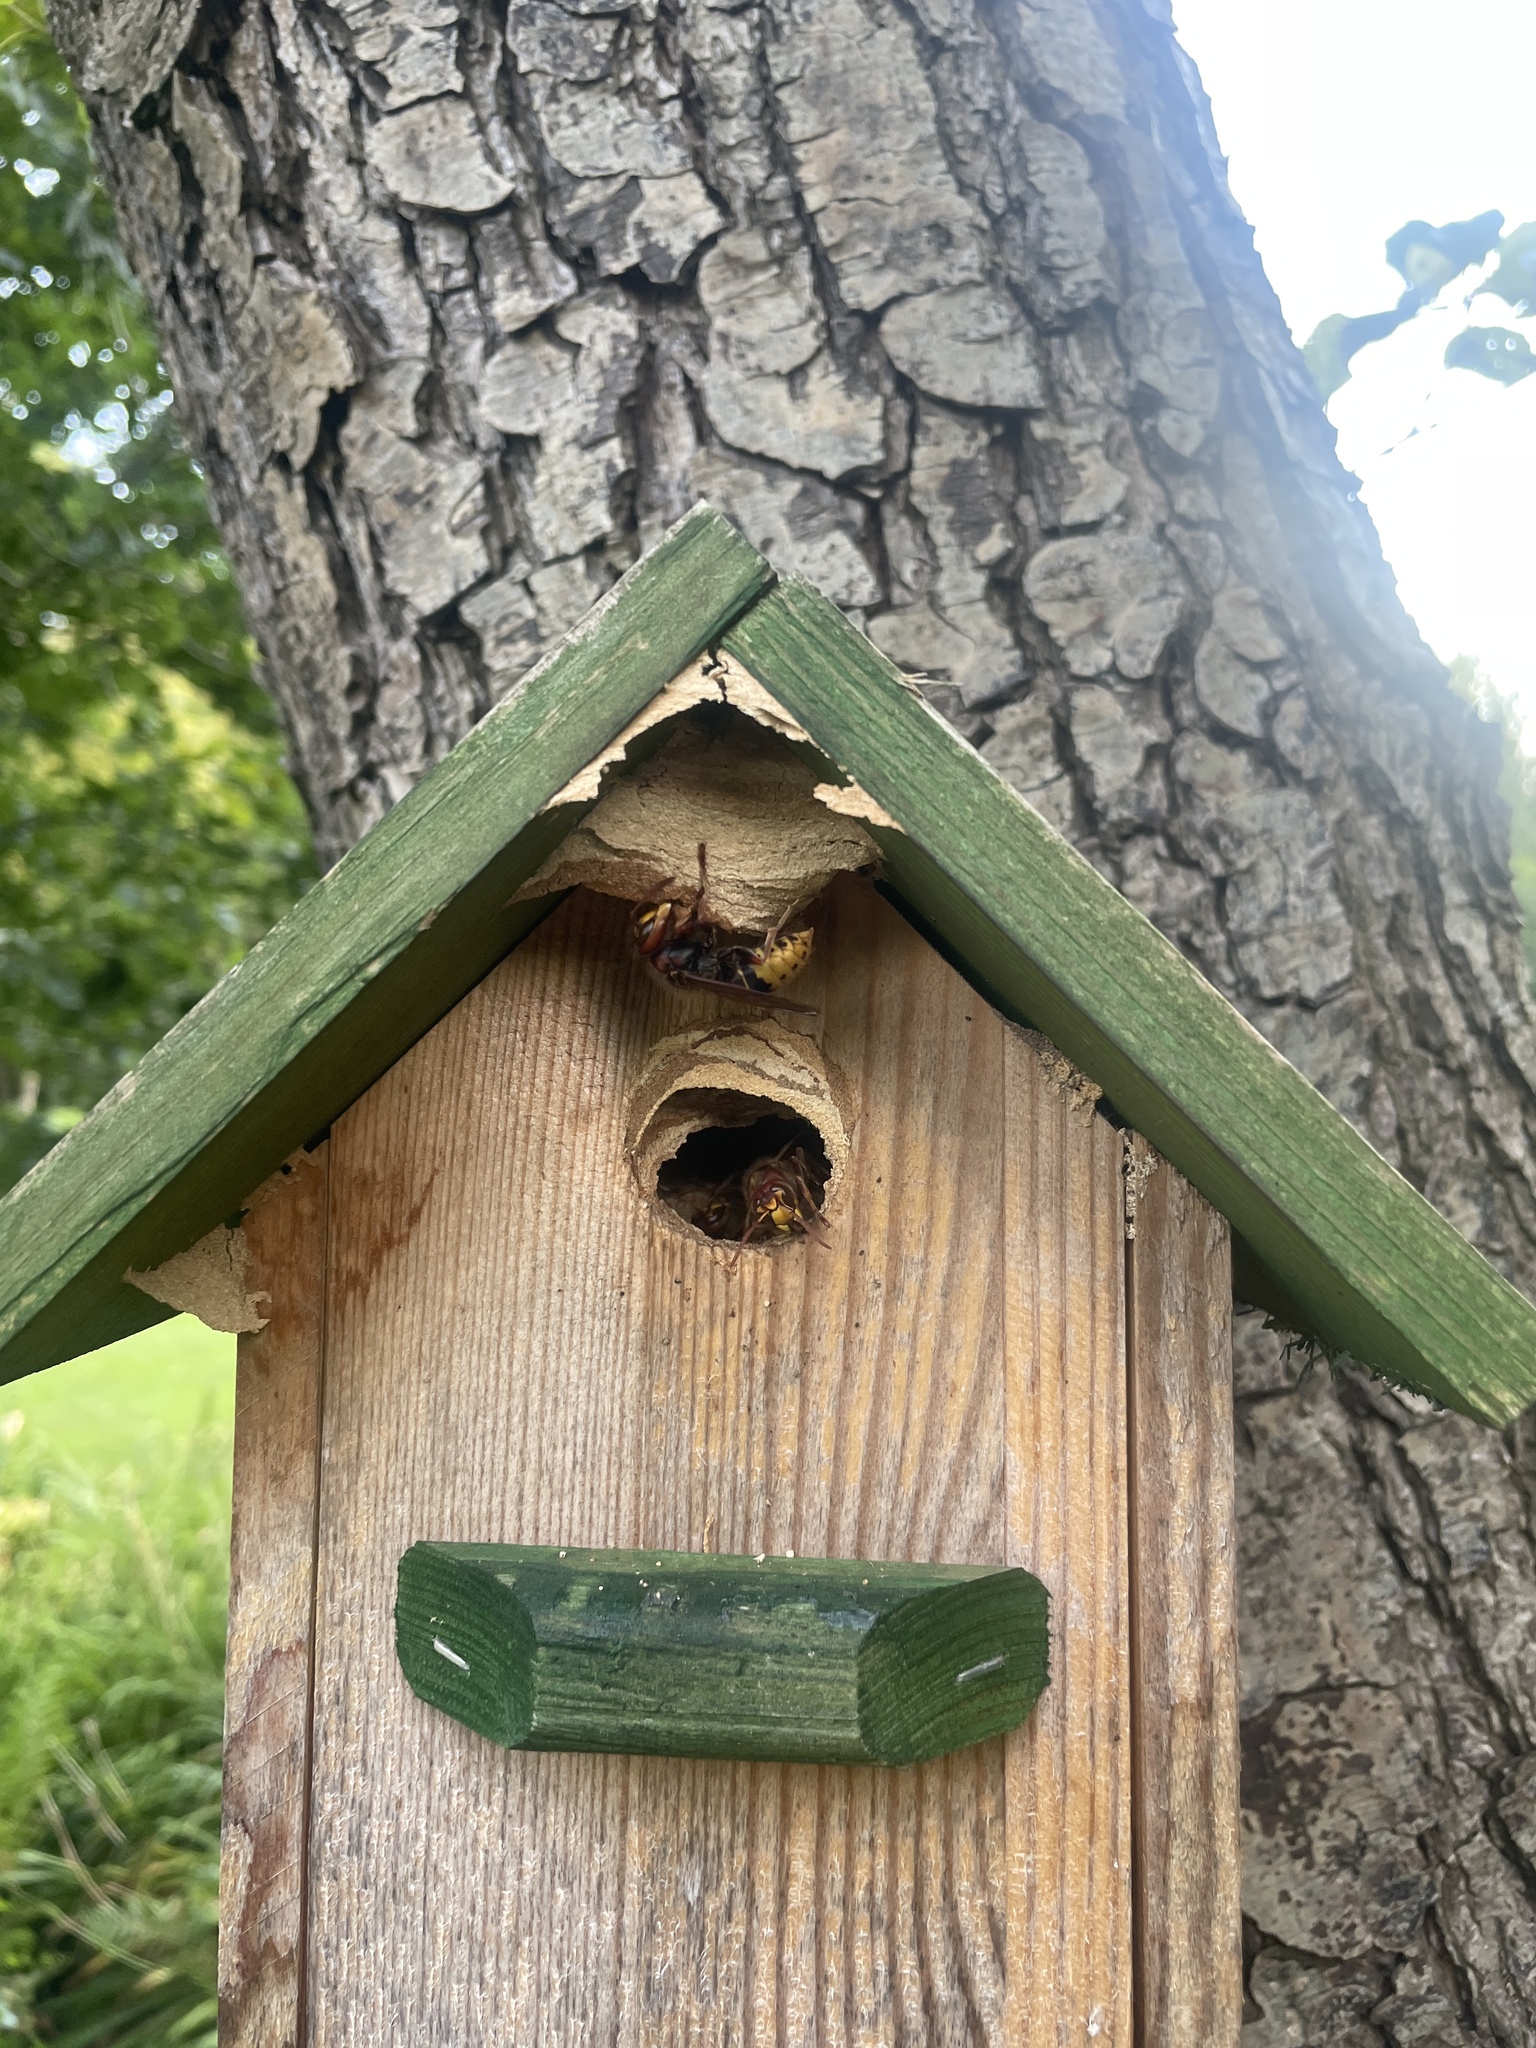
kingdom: Animalia
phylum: Arthropoda
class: Insecta
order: Hymenoptera
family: Vespidae
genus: Vespa
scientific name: Vespa crabro
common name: Hornet
